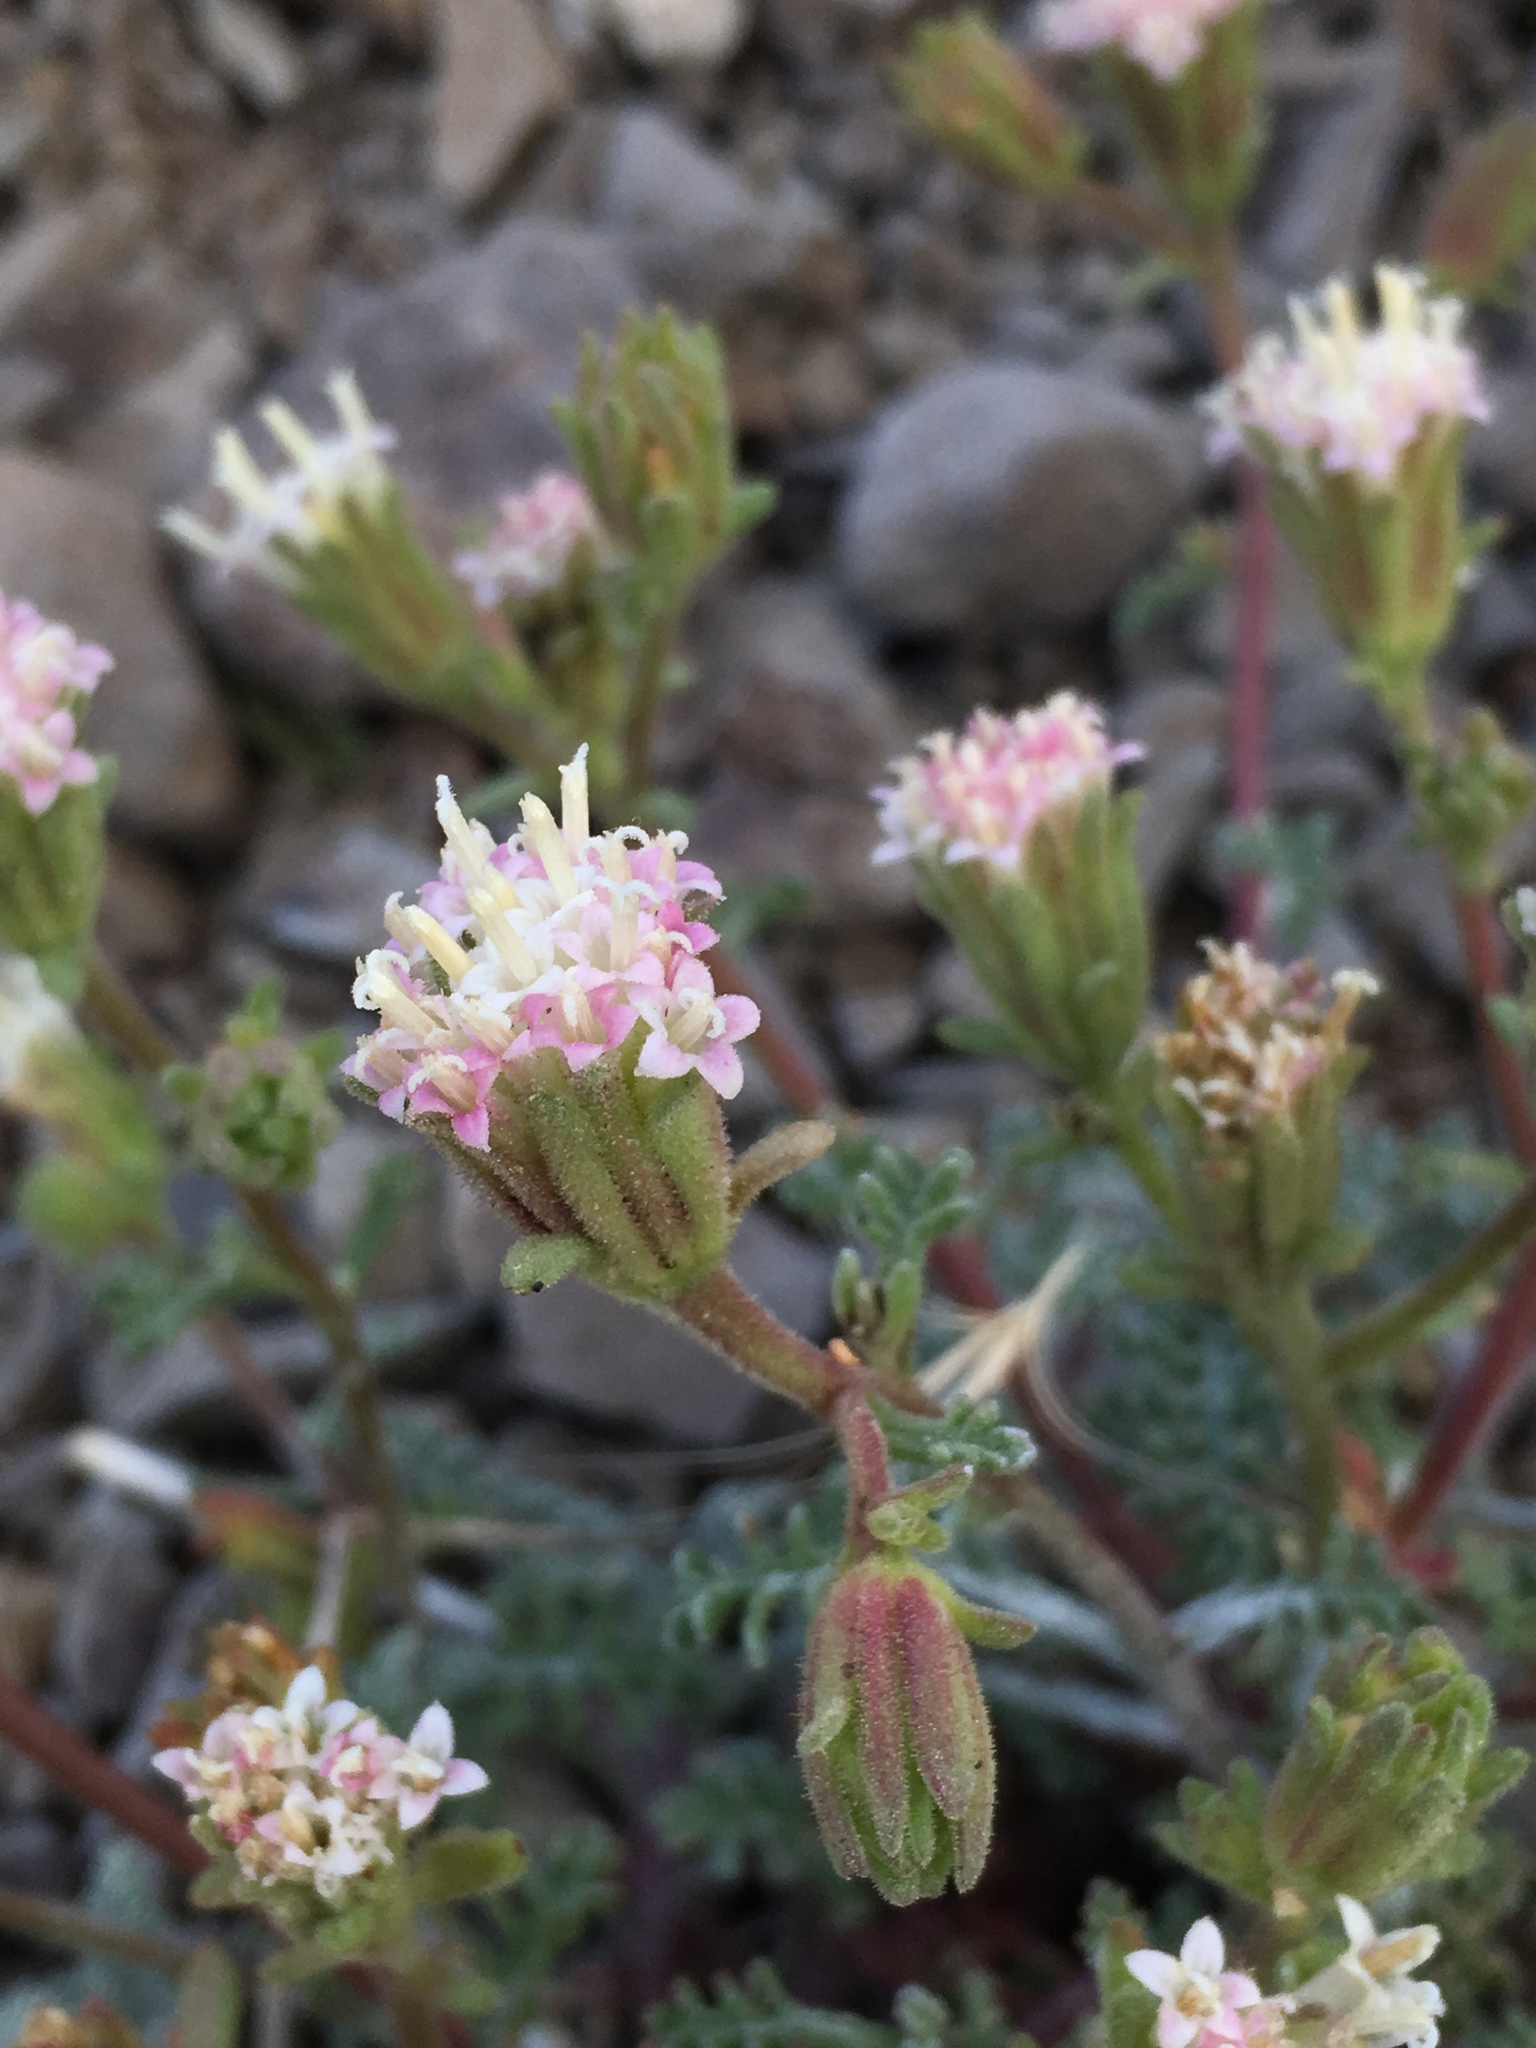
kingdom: Plantae
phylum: Tracheophyta
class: Magnoliopsida
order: Asterales
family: Asteraceae
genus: Chaenactis
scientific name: Chaenactis douglasii
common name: Hoary pincushion
